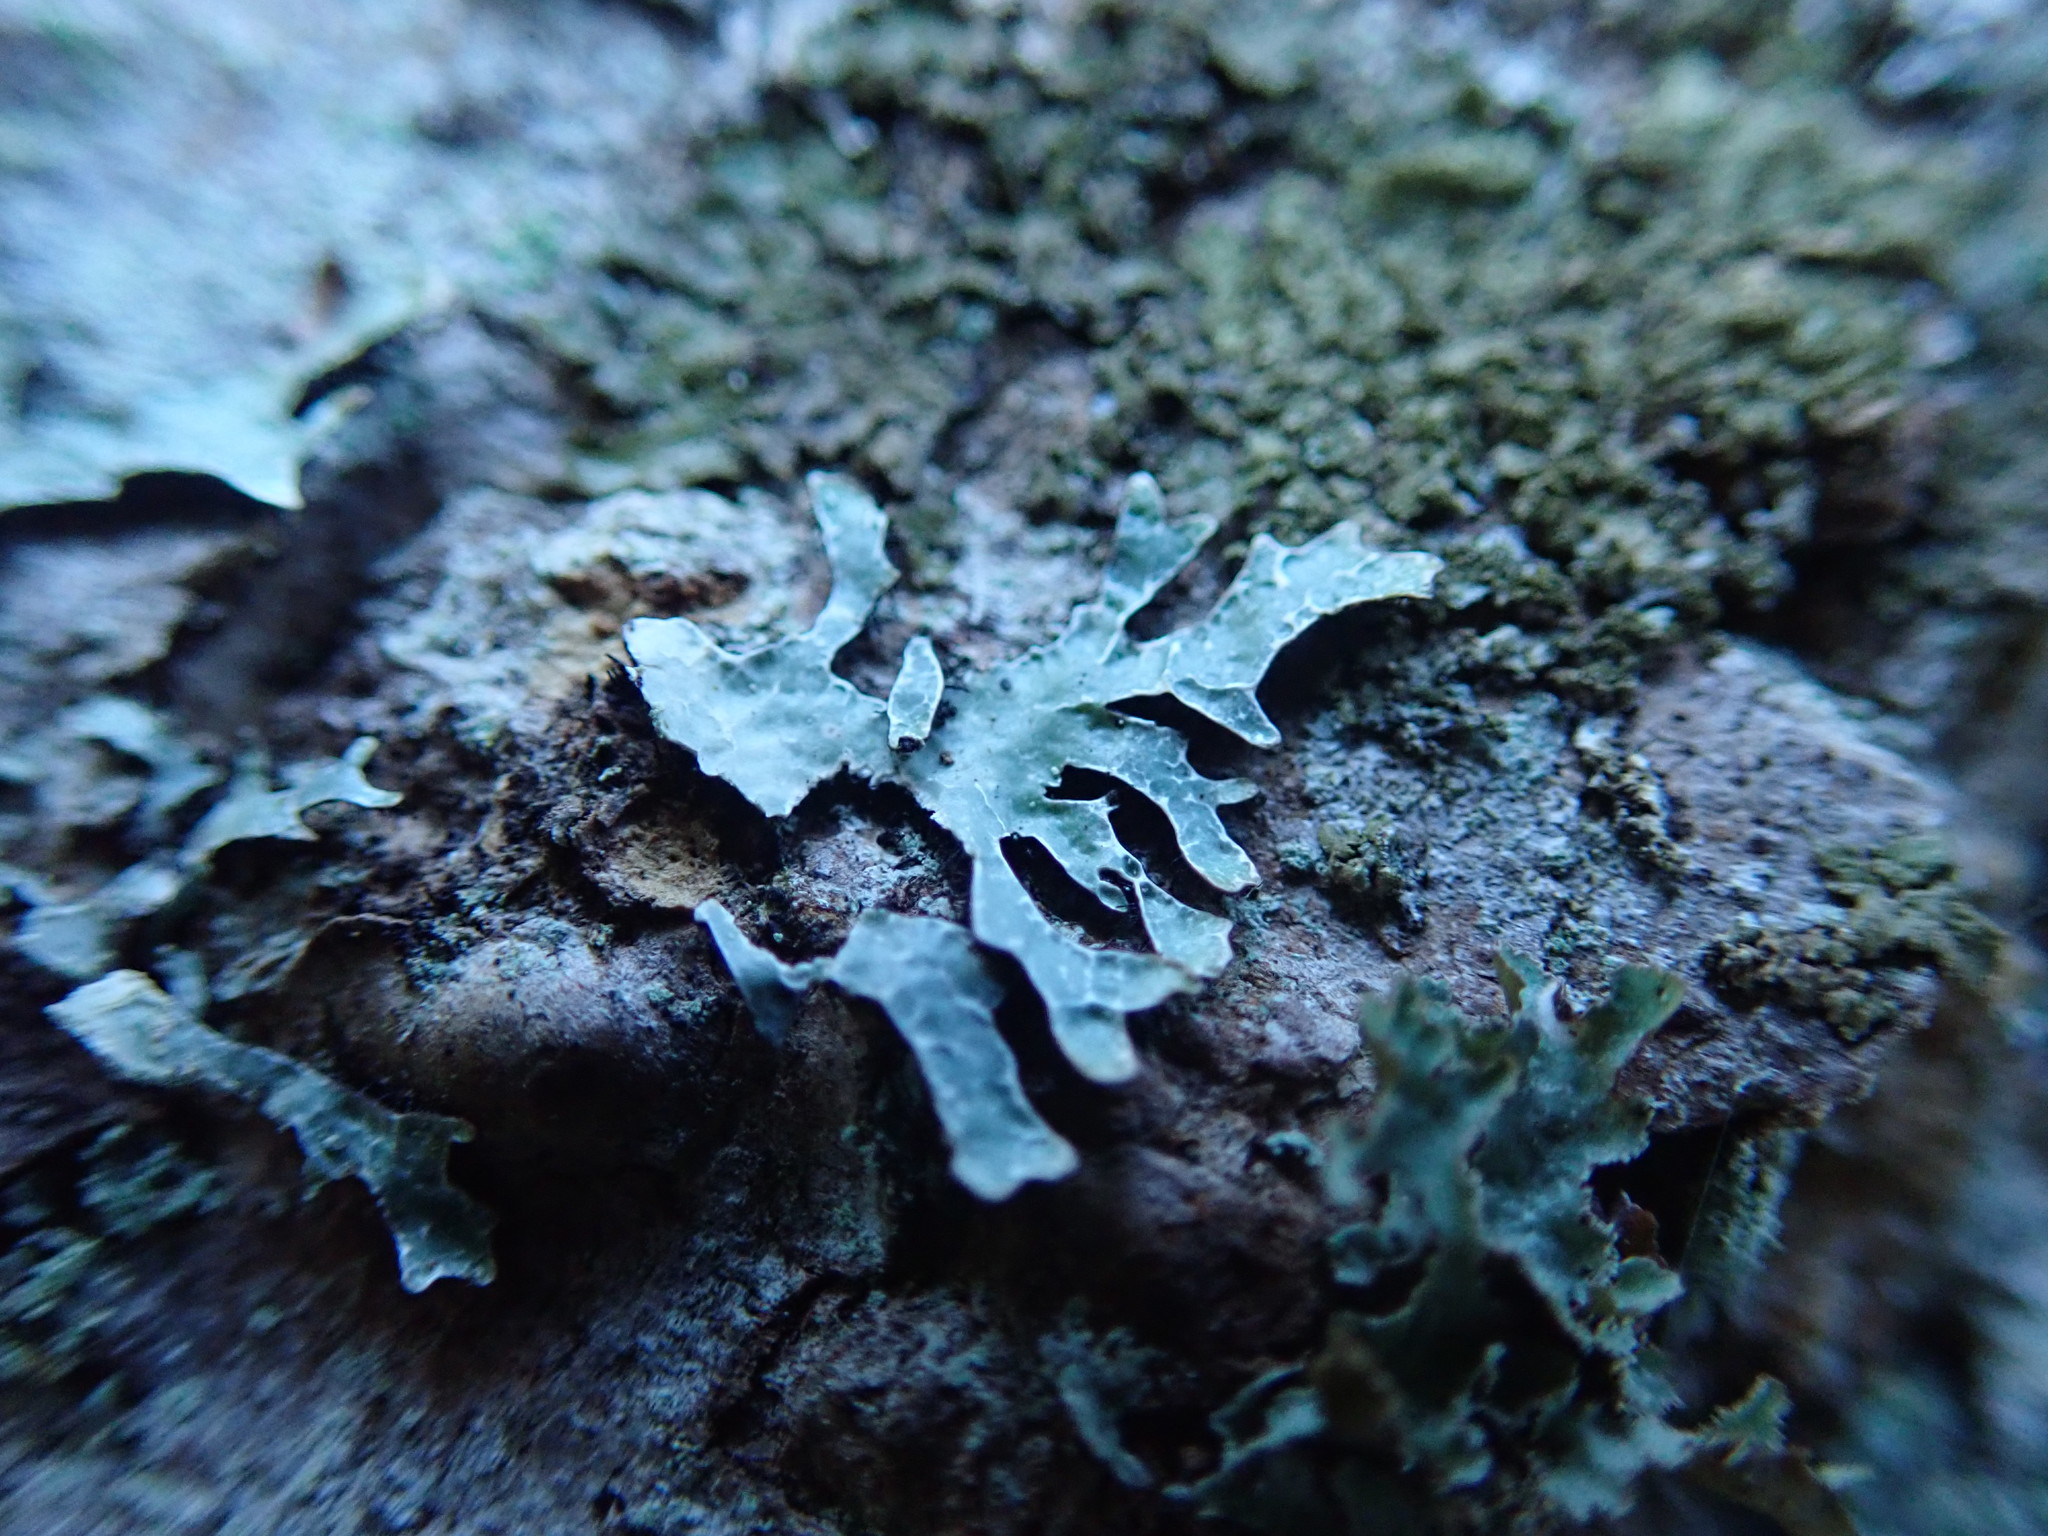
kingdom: Fungi
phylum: Ascomycota
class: Lecanoromycetes
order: Lecanorales
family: Parmeliaceae
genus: Parmelia
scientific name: Parmelia sulcata
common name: Netted shield lichen
